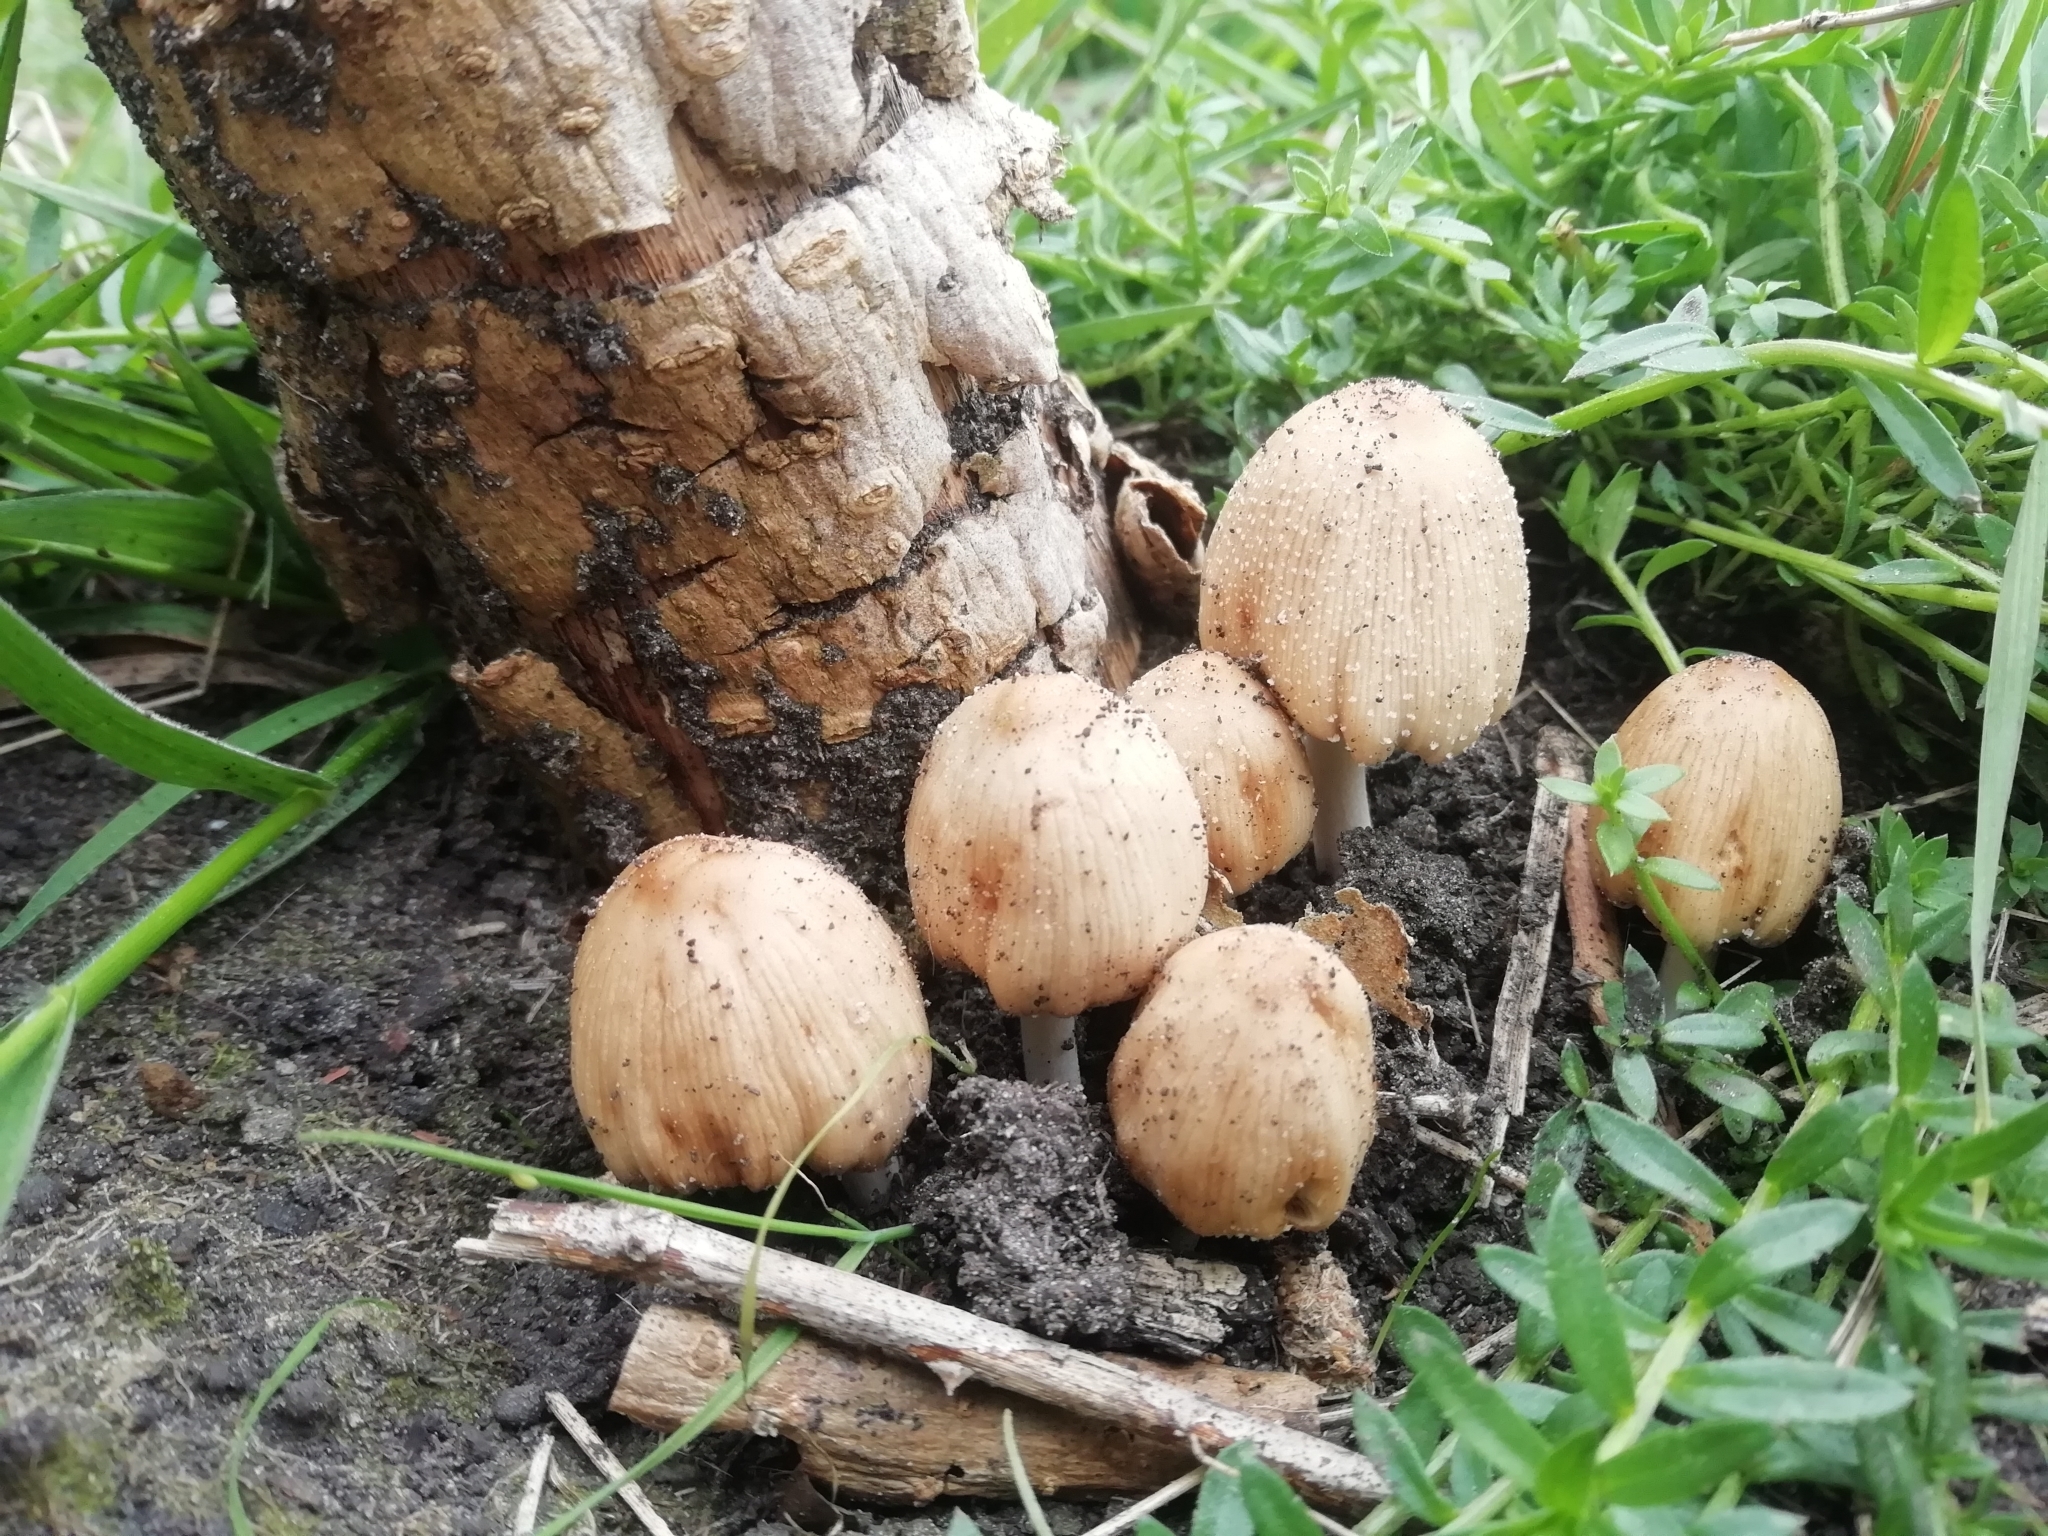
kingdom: Fungi
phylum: Basidiomycota
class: Agaricomycetes
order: Agaricales
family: Psathyrellaceae
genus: Coprinellus
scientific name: Coprinellus micaceus
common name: Glistening ink-cap
